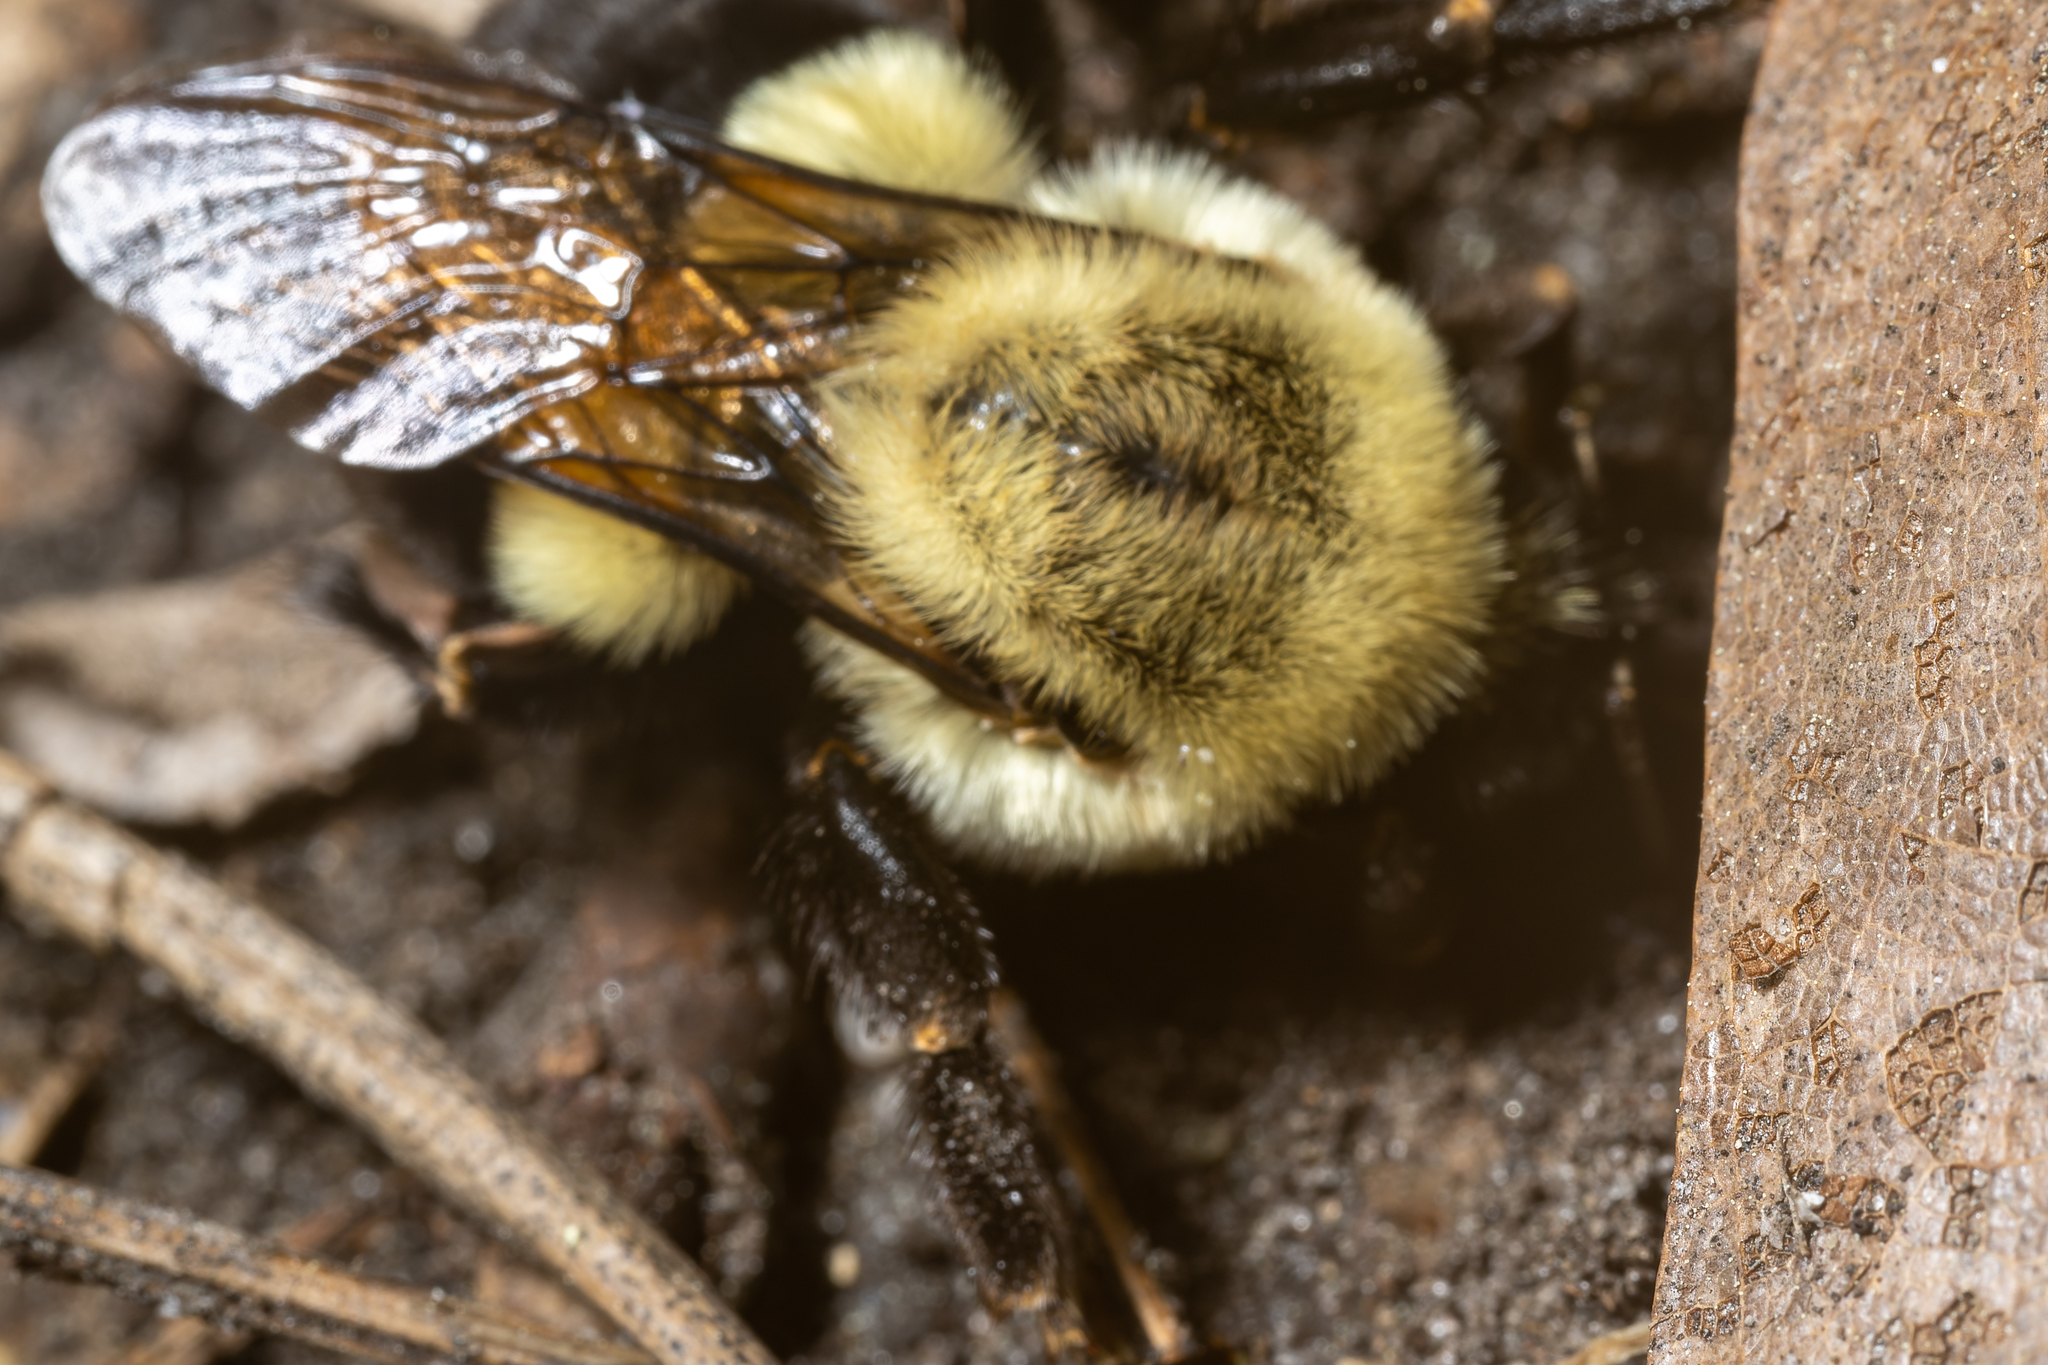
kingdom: Animalia
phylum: Arthropoda
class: Insecta
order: Hymenoptera
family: Apidae
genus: Bombus
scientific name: Bombus impatiens
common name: Common eastern bumble bee
